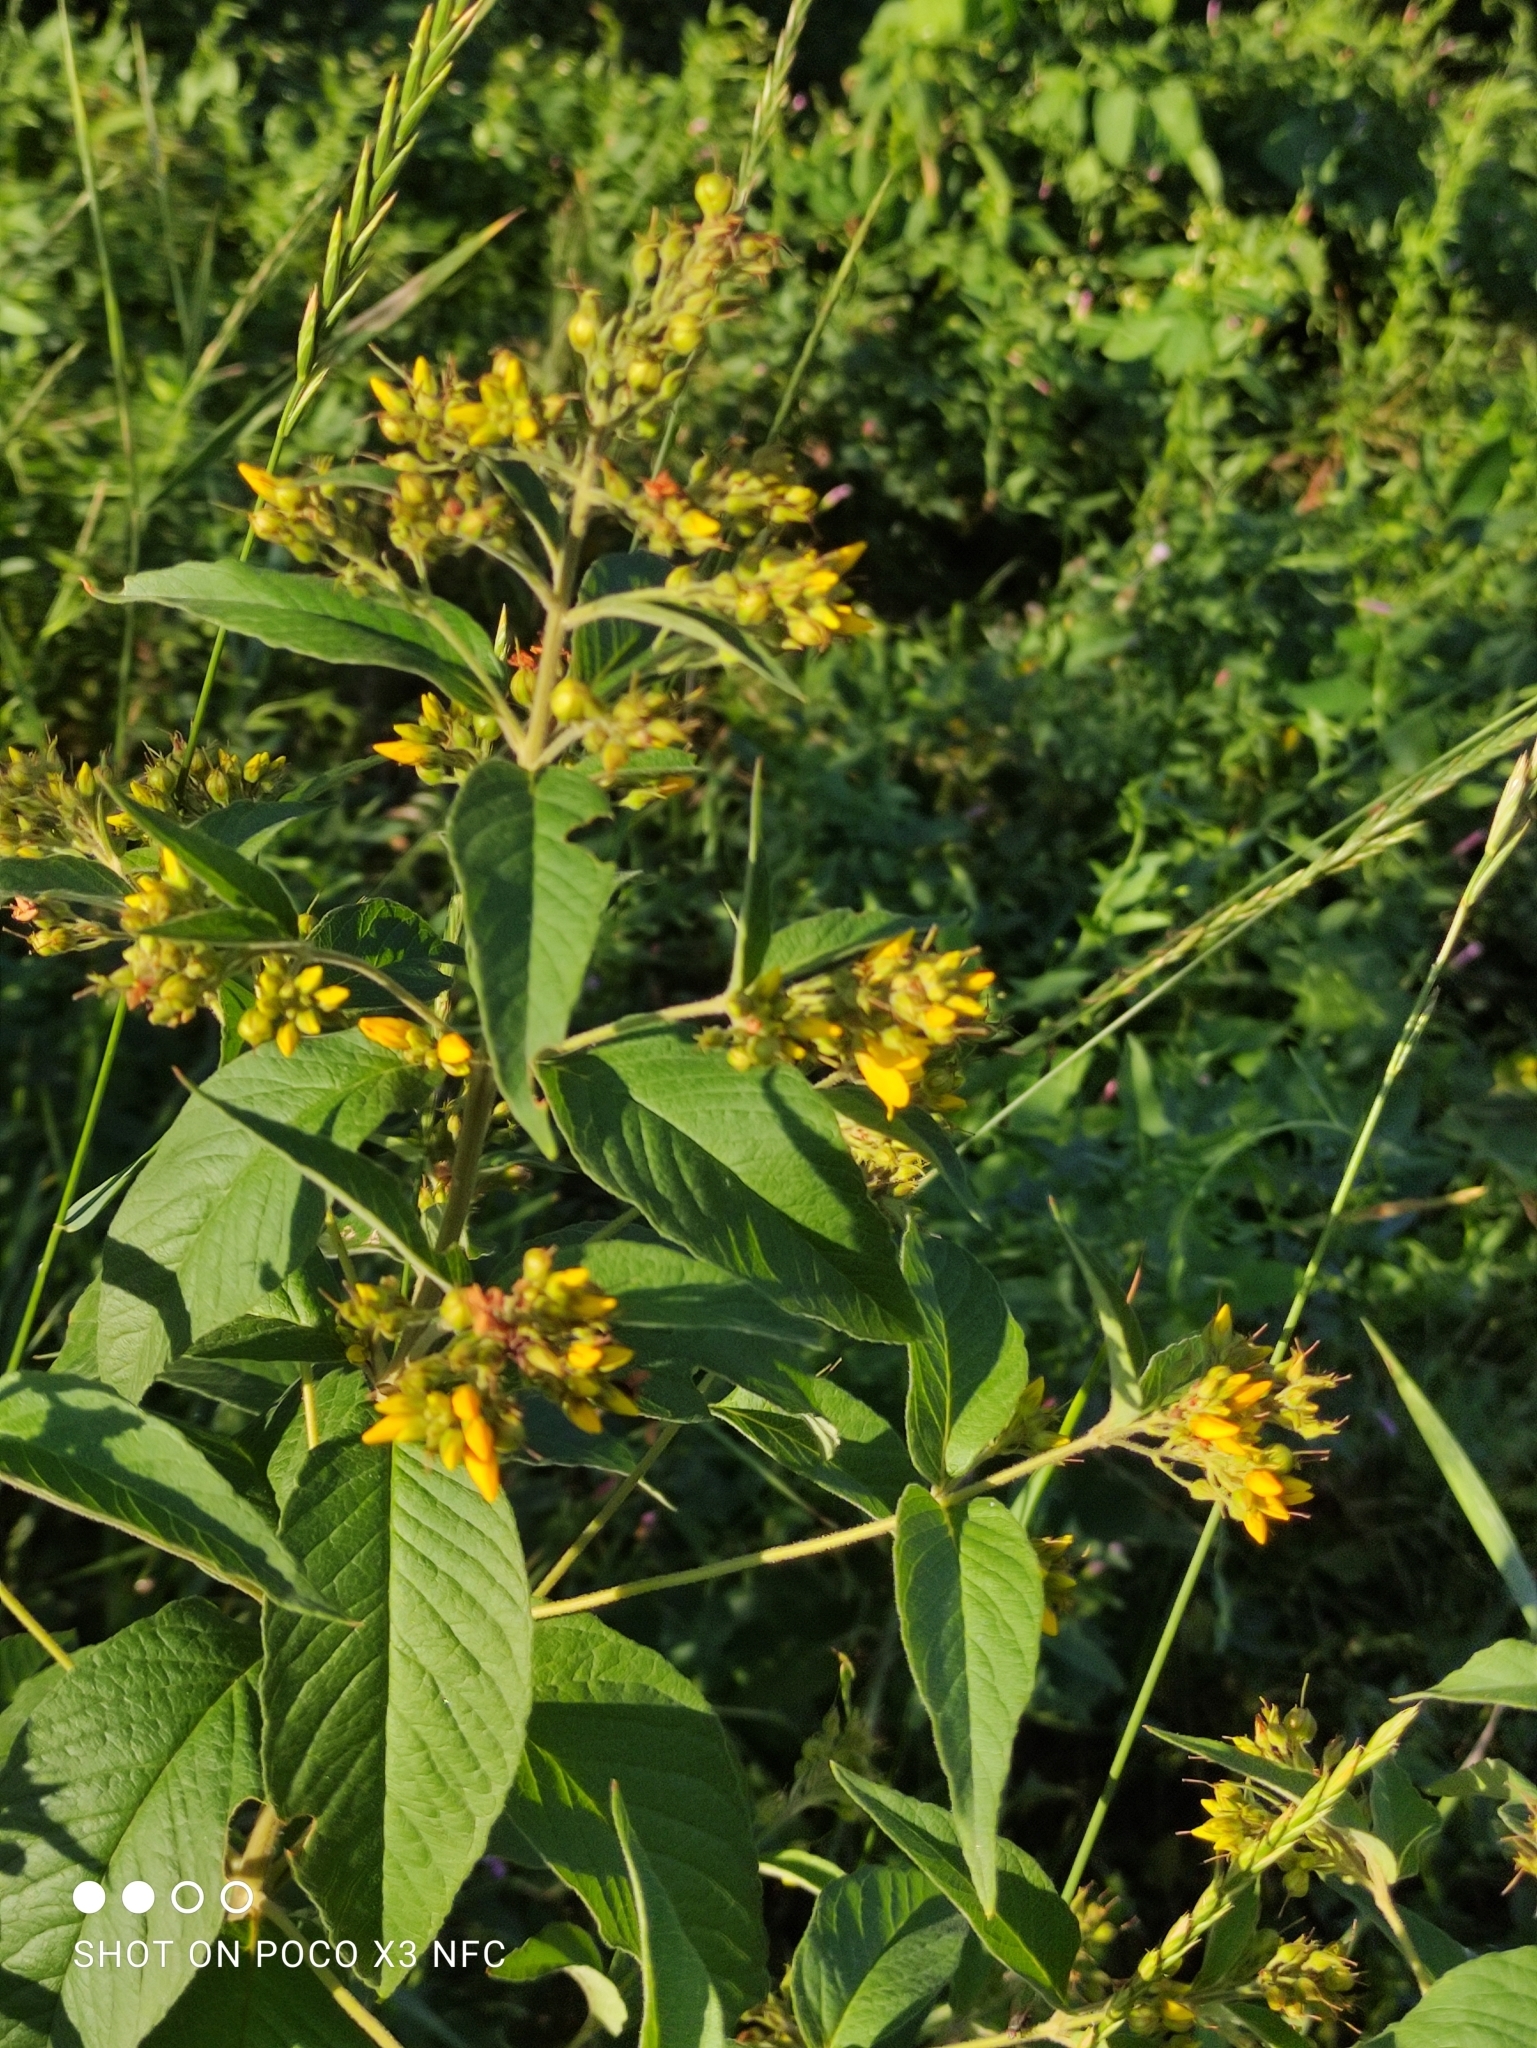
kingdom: Plantae
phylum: Tracheophyta
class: Magnoliopsida
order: Ericales
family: Primulaceae
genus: Lysimachia
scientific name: Lysimachia vulgaris
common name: Yellow loosestrife
